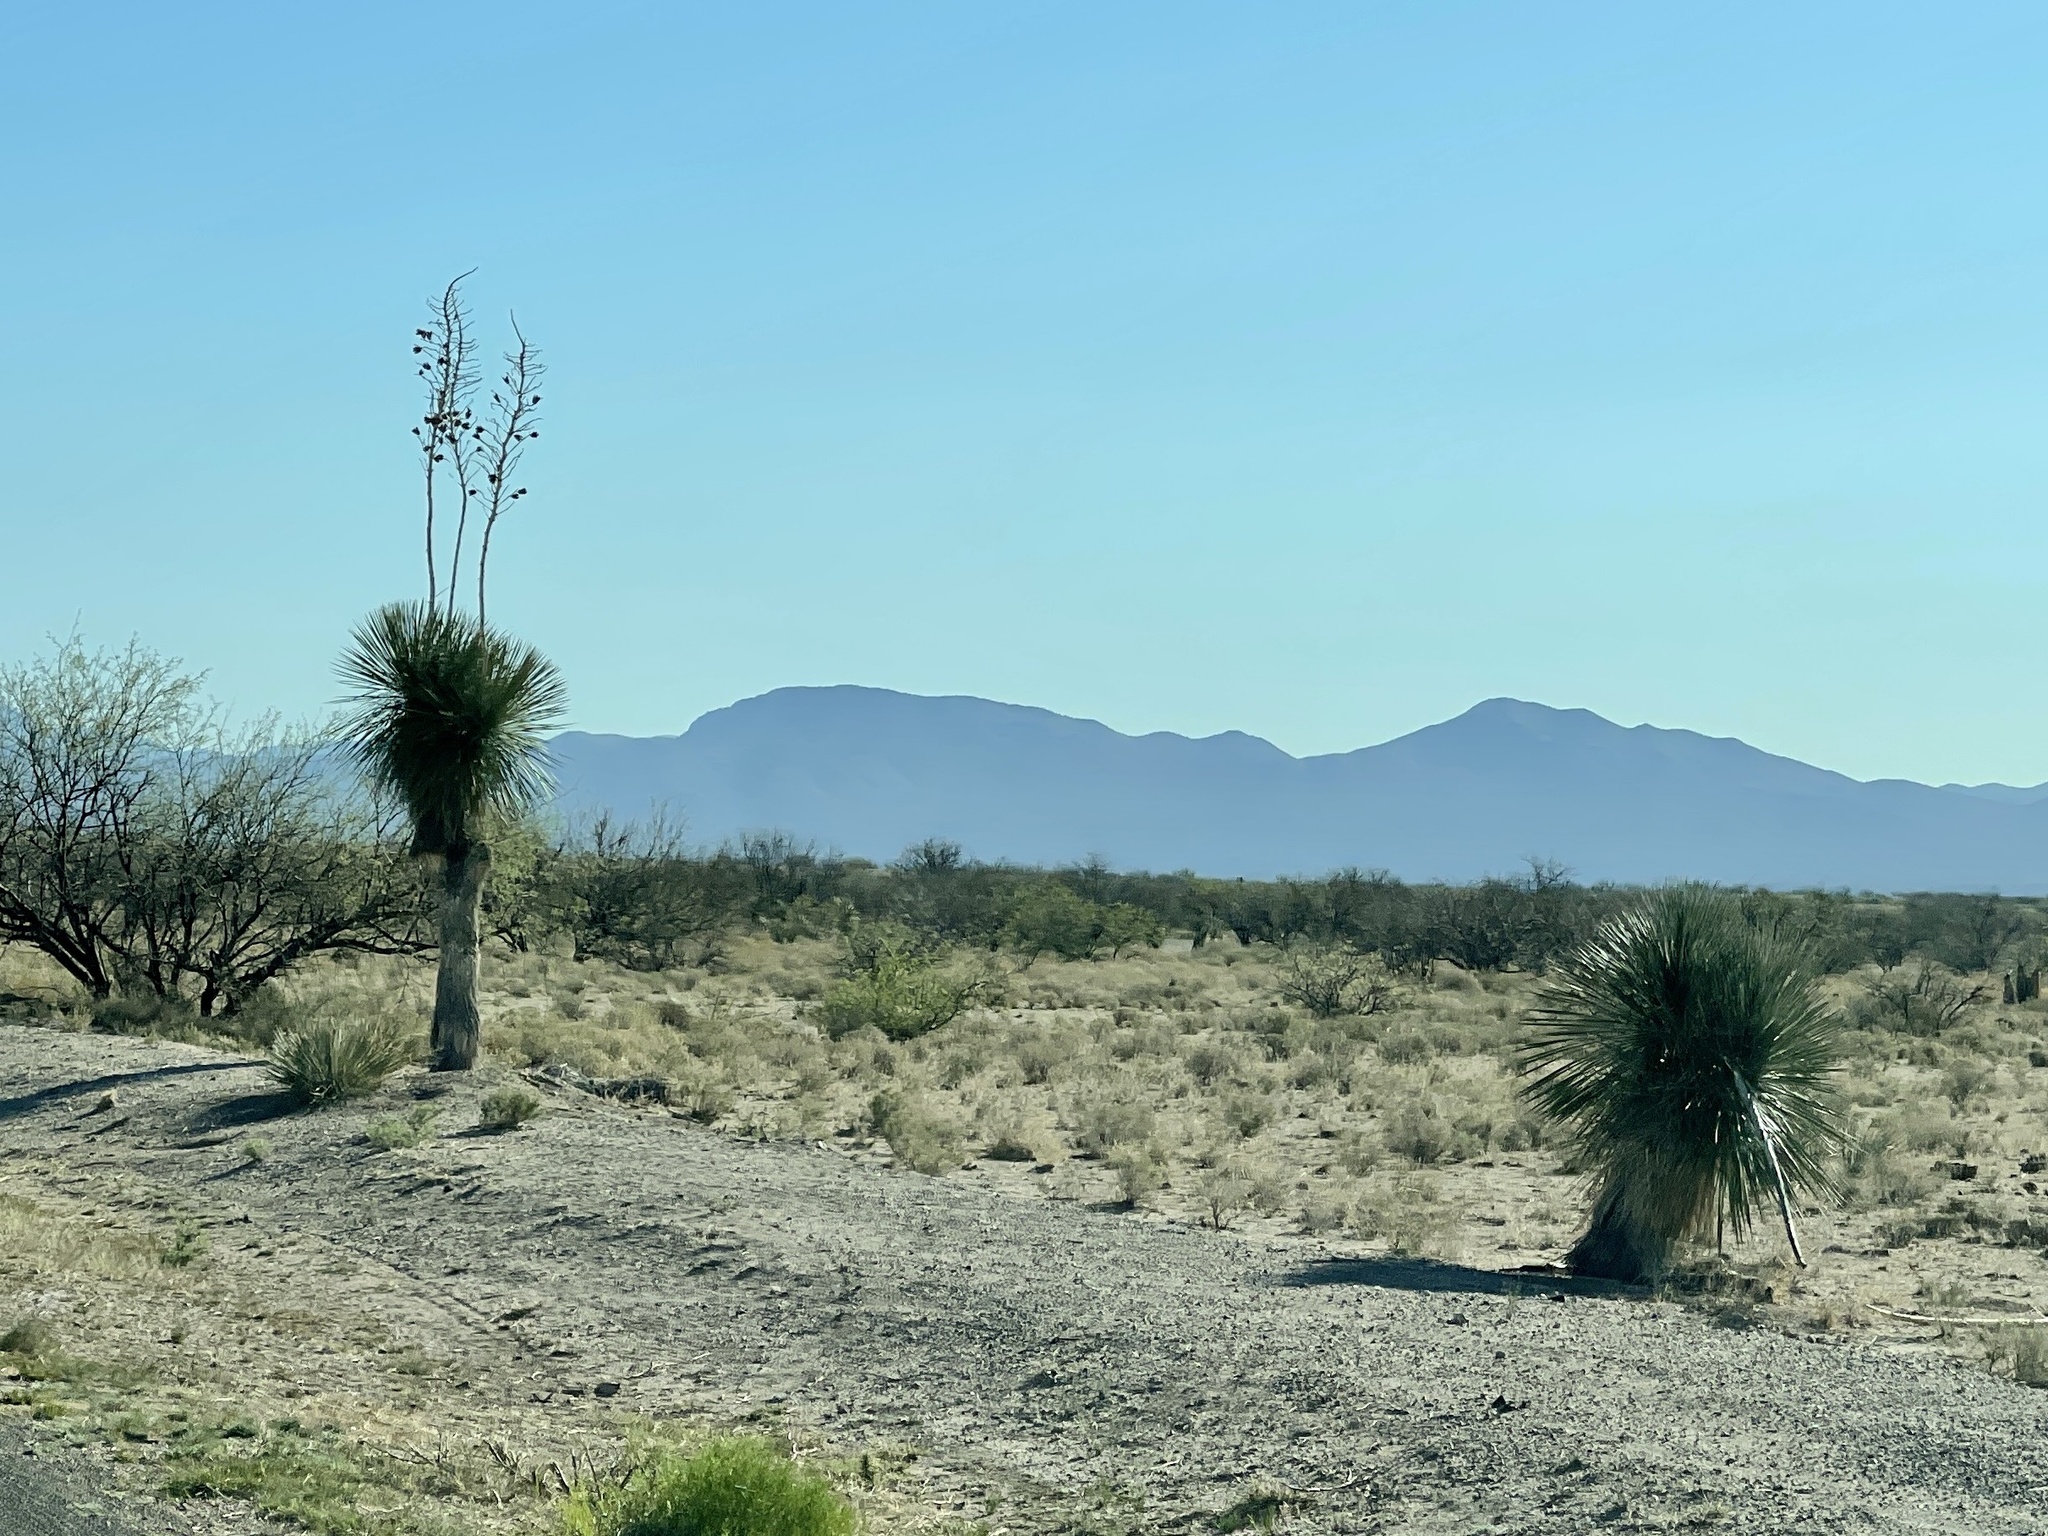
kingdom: Plantae
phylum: Tracheophyta
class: Liliopsida
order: Asparagales
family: Asparagaceae
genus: Yucca
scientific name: Yucca elata
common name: Palmella
